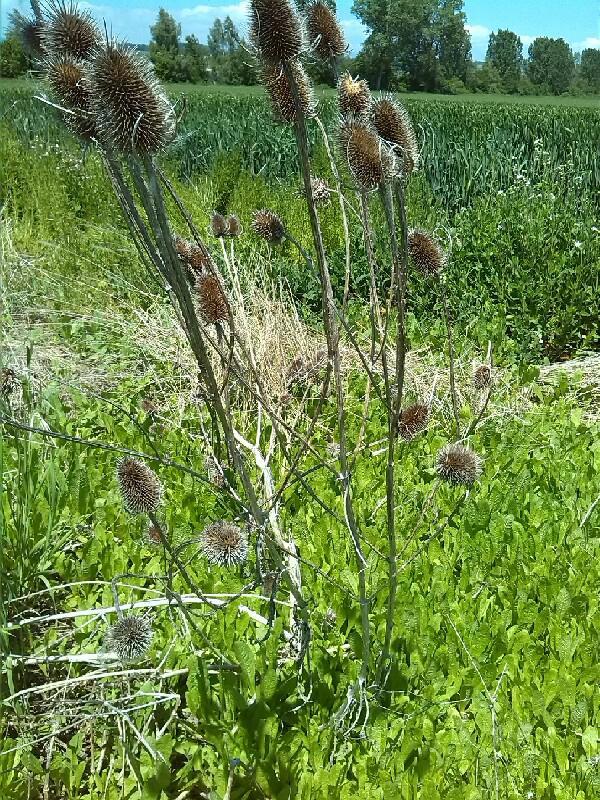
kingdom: Plantae
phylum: Tracheophyta
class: Magnoliopsida
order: Dipsacales
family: Caprifoliaceae
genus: Dipsacus
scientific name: Dipsacus fullonum
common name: Teasel
